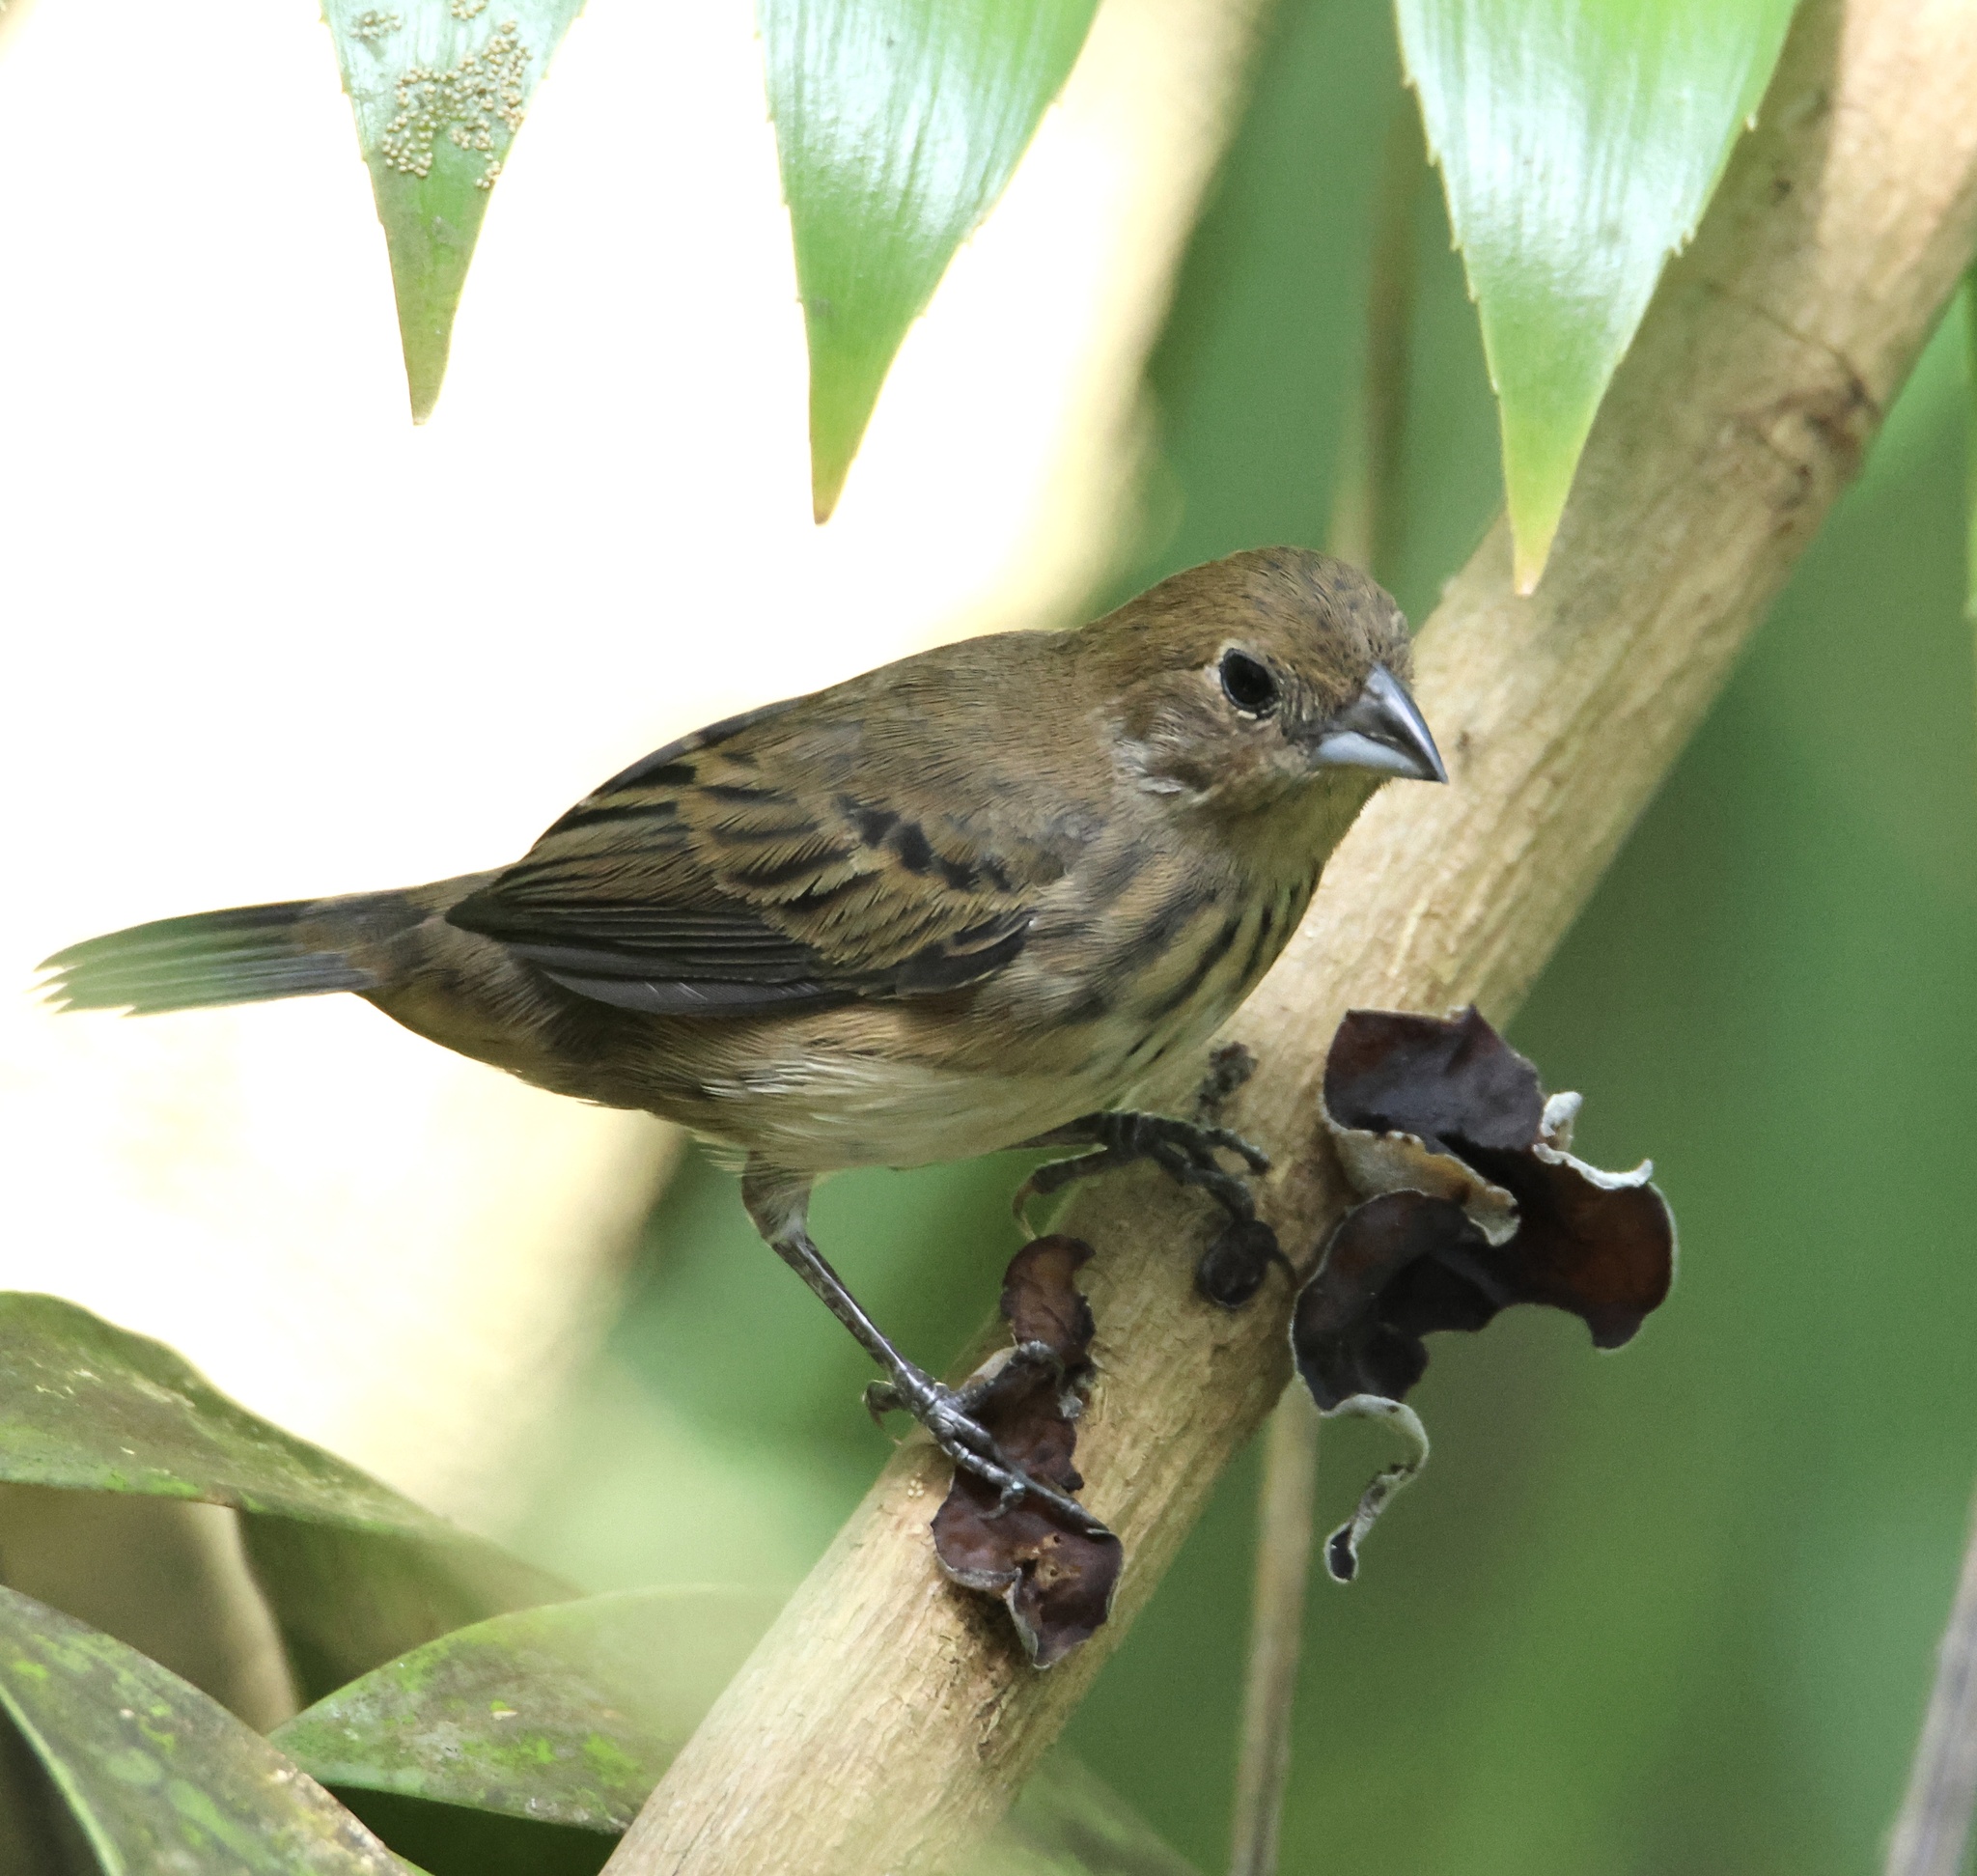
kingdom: Animalia
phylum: Chordata
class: Aves
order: Passeriformes
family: Thraupidae
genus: Volatinia
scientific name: Volatinia jacarina
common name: Blue-black grassquit
